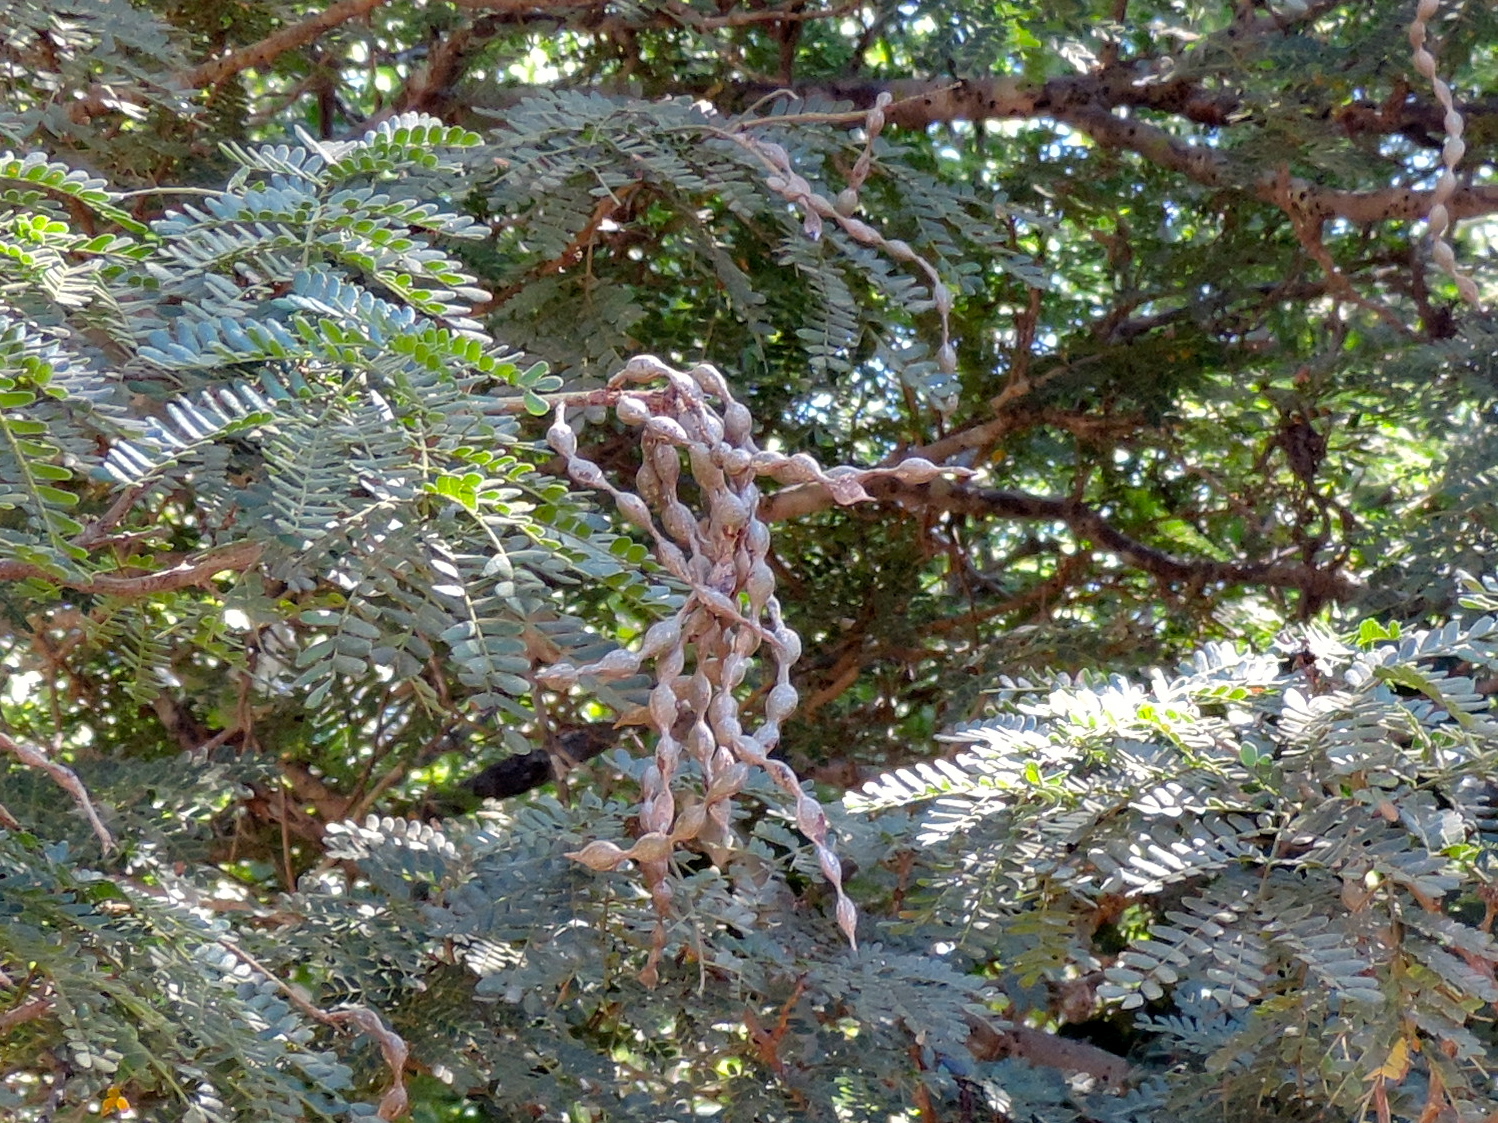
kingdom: Plantae
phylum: Tracheophyta
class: Magnoliopsida
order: Fabales
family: Fabaceae
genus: Pityrocarpa
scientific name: Pityrocarpa obliqua
